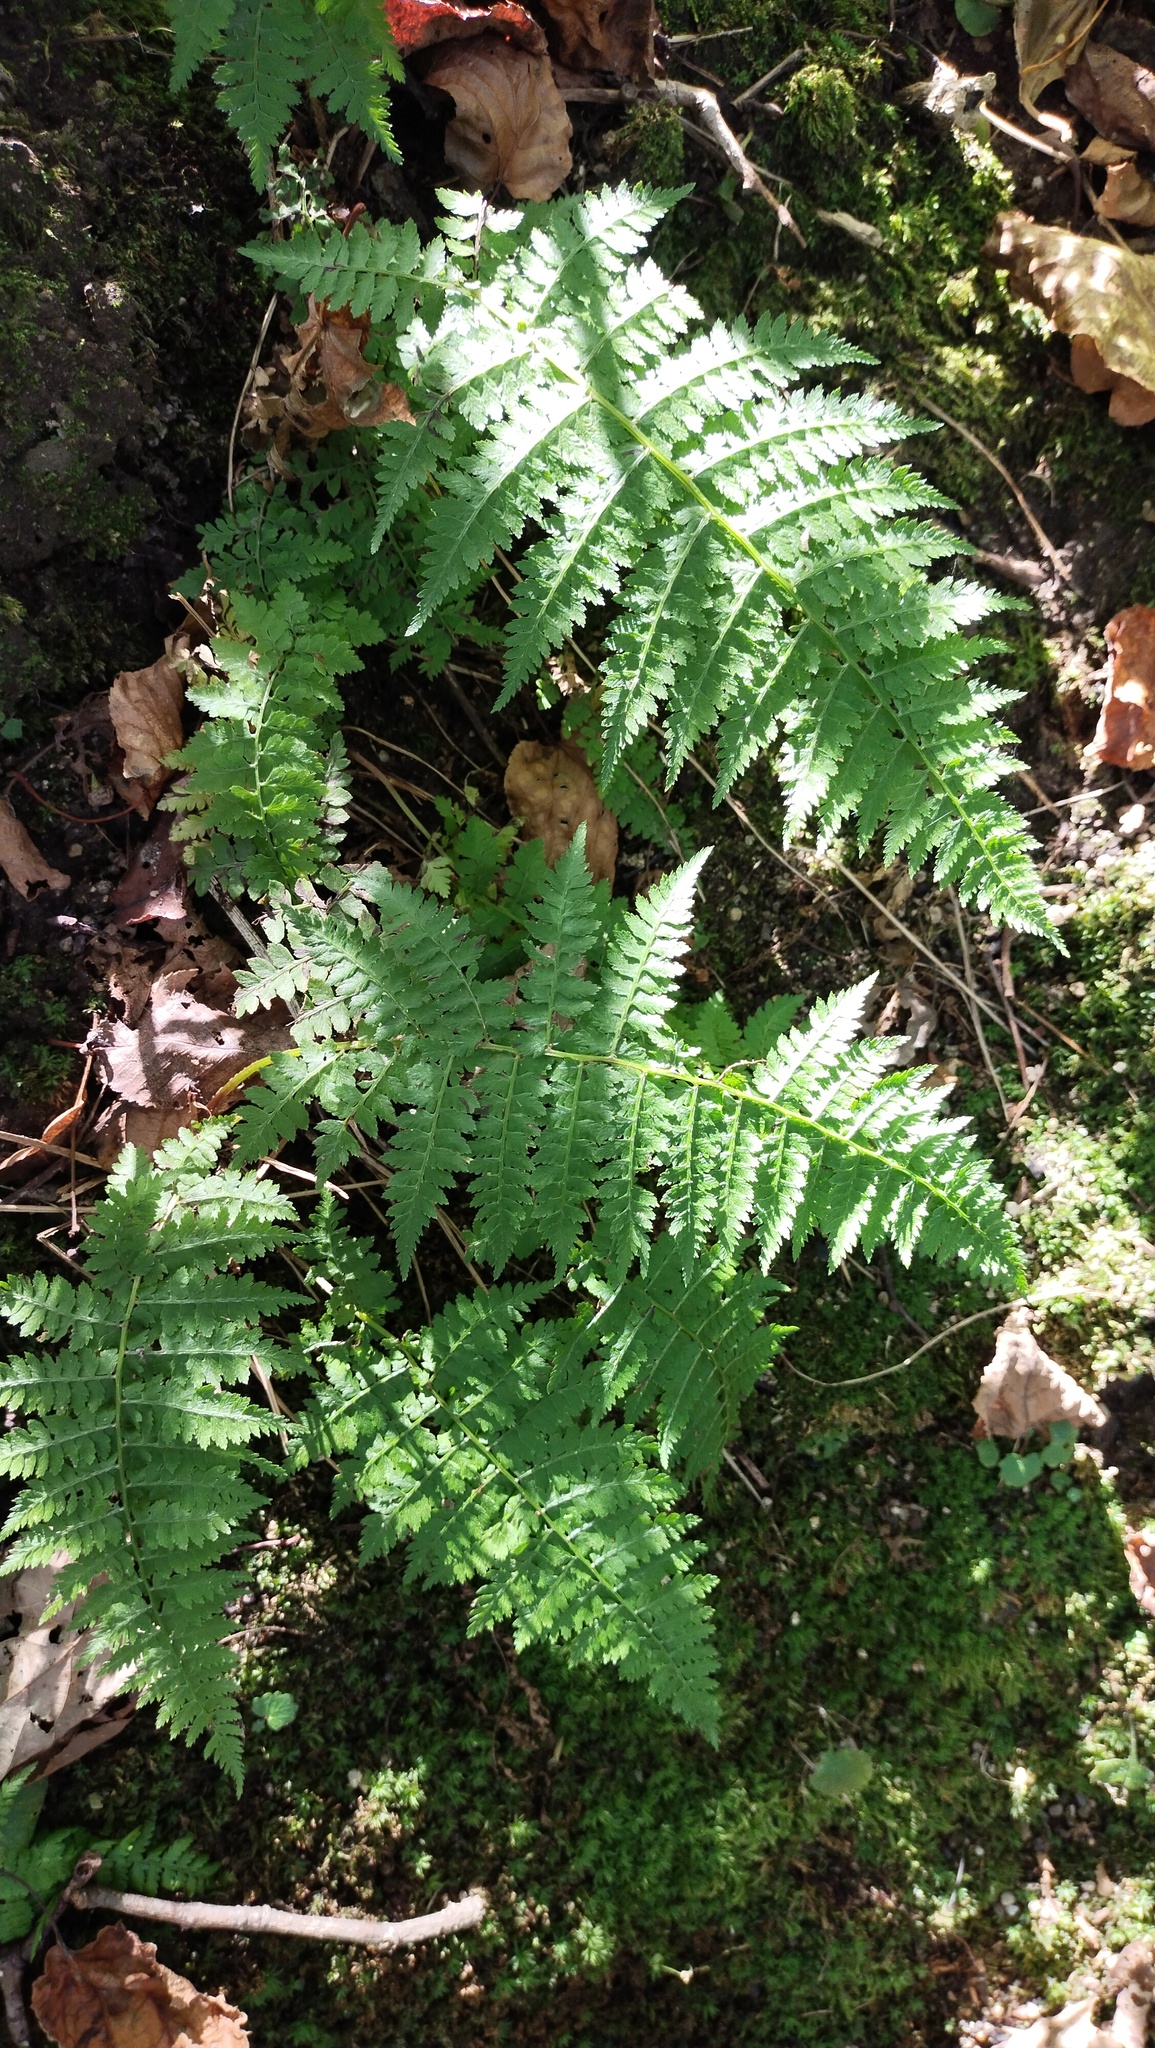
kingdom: Plantae
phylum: Tracheophyta
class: Polypodiopsida
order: Polypodiales
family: Athyriaceae
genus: Athyrium
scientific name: Athyrium yokoscense
